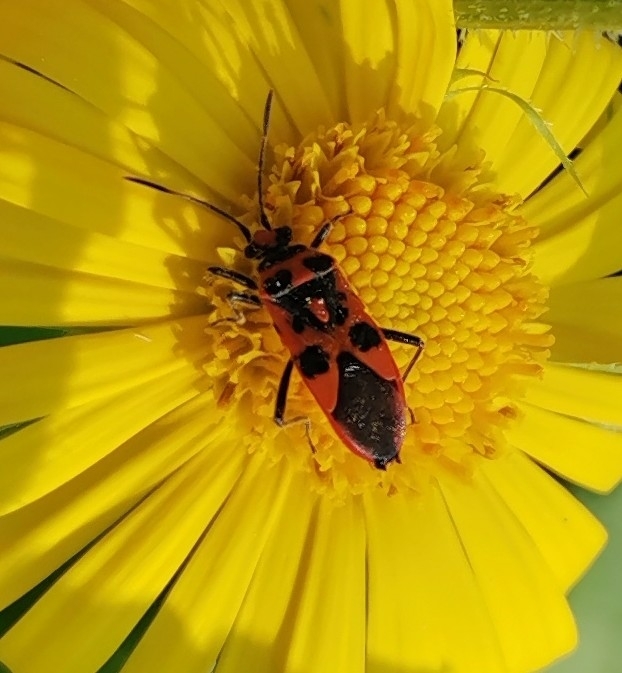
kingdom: Animalia
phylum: Arthropoda
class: Insecta
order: Hemiptera
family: Rhopalidae
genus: Corizus
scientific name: Corizus hyoscyami
